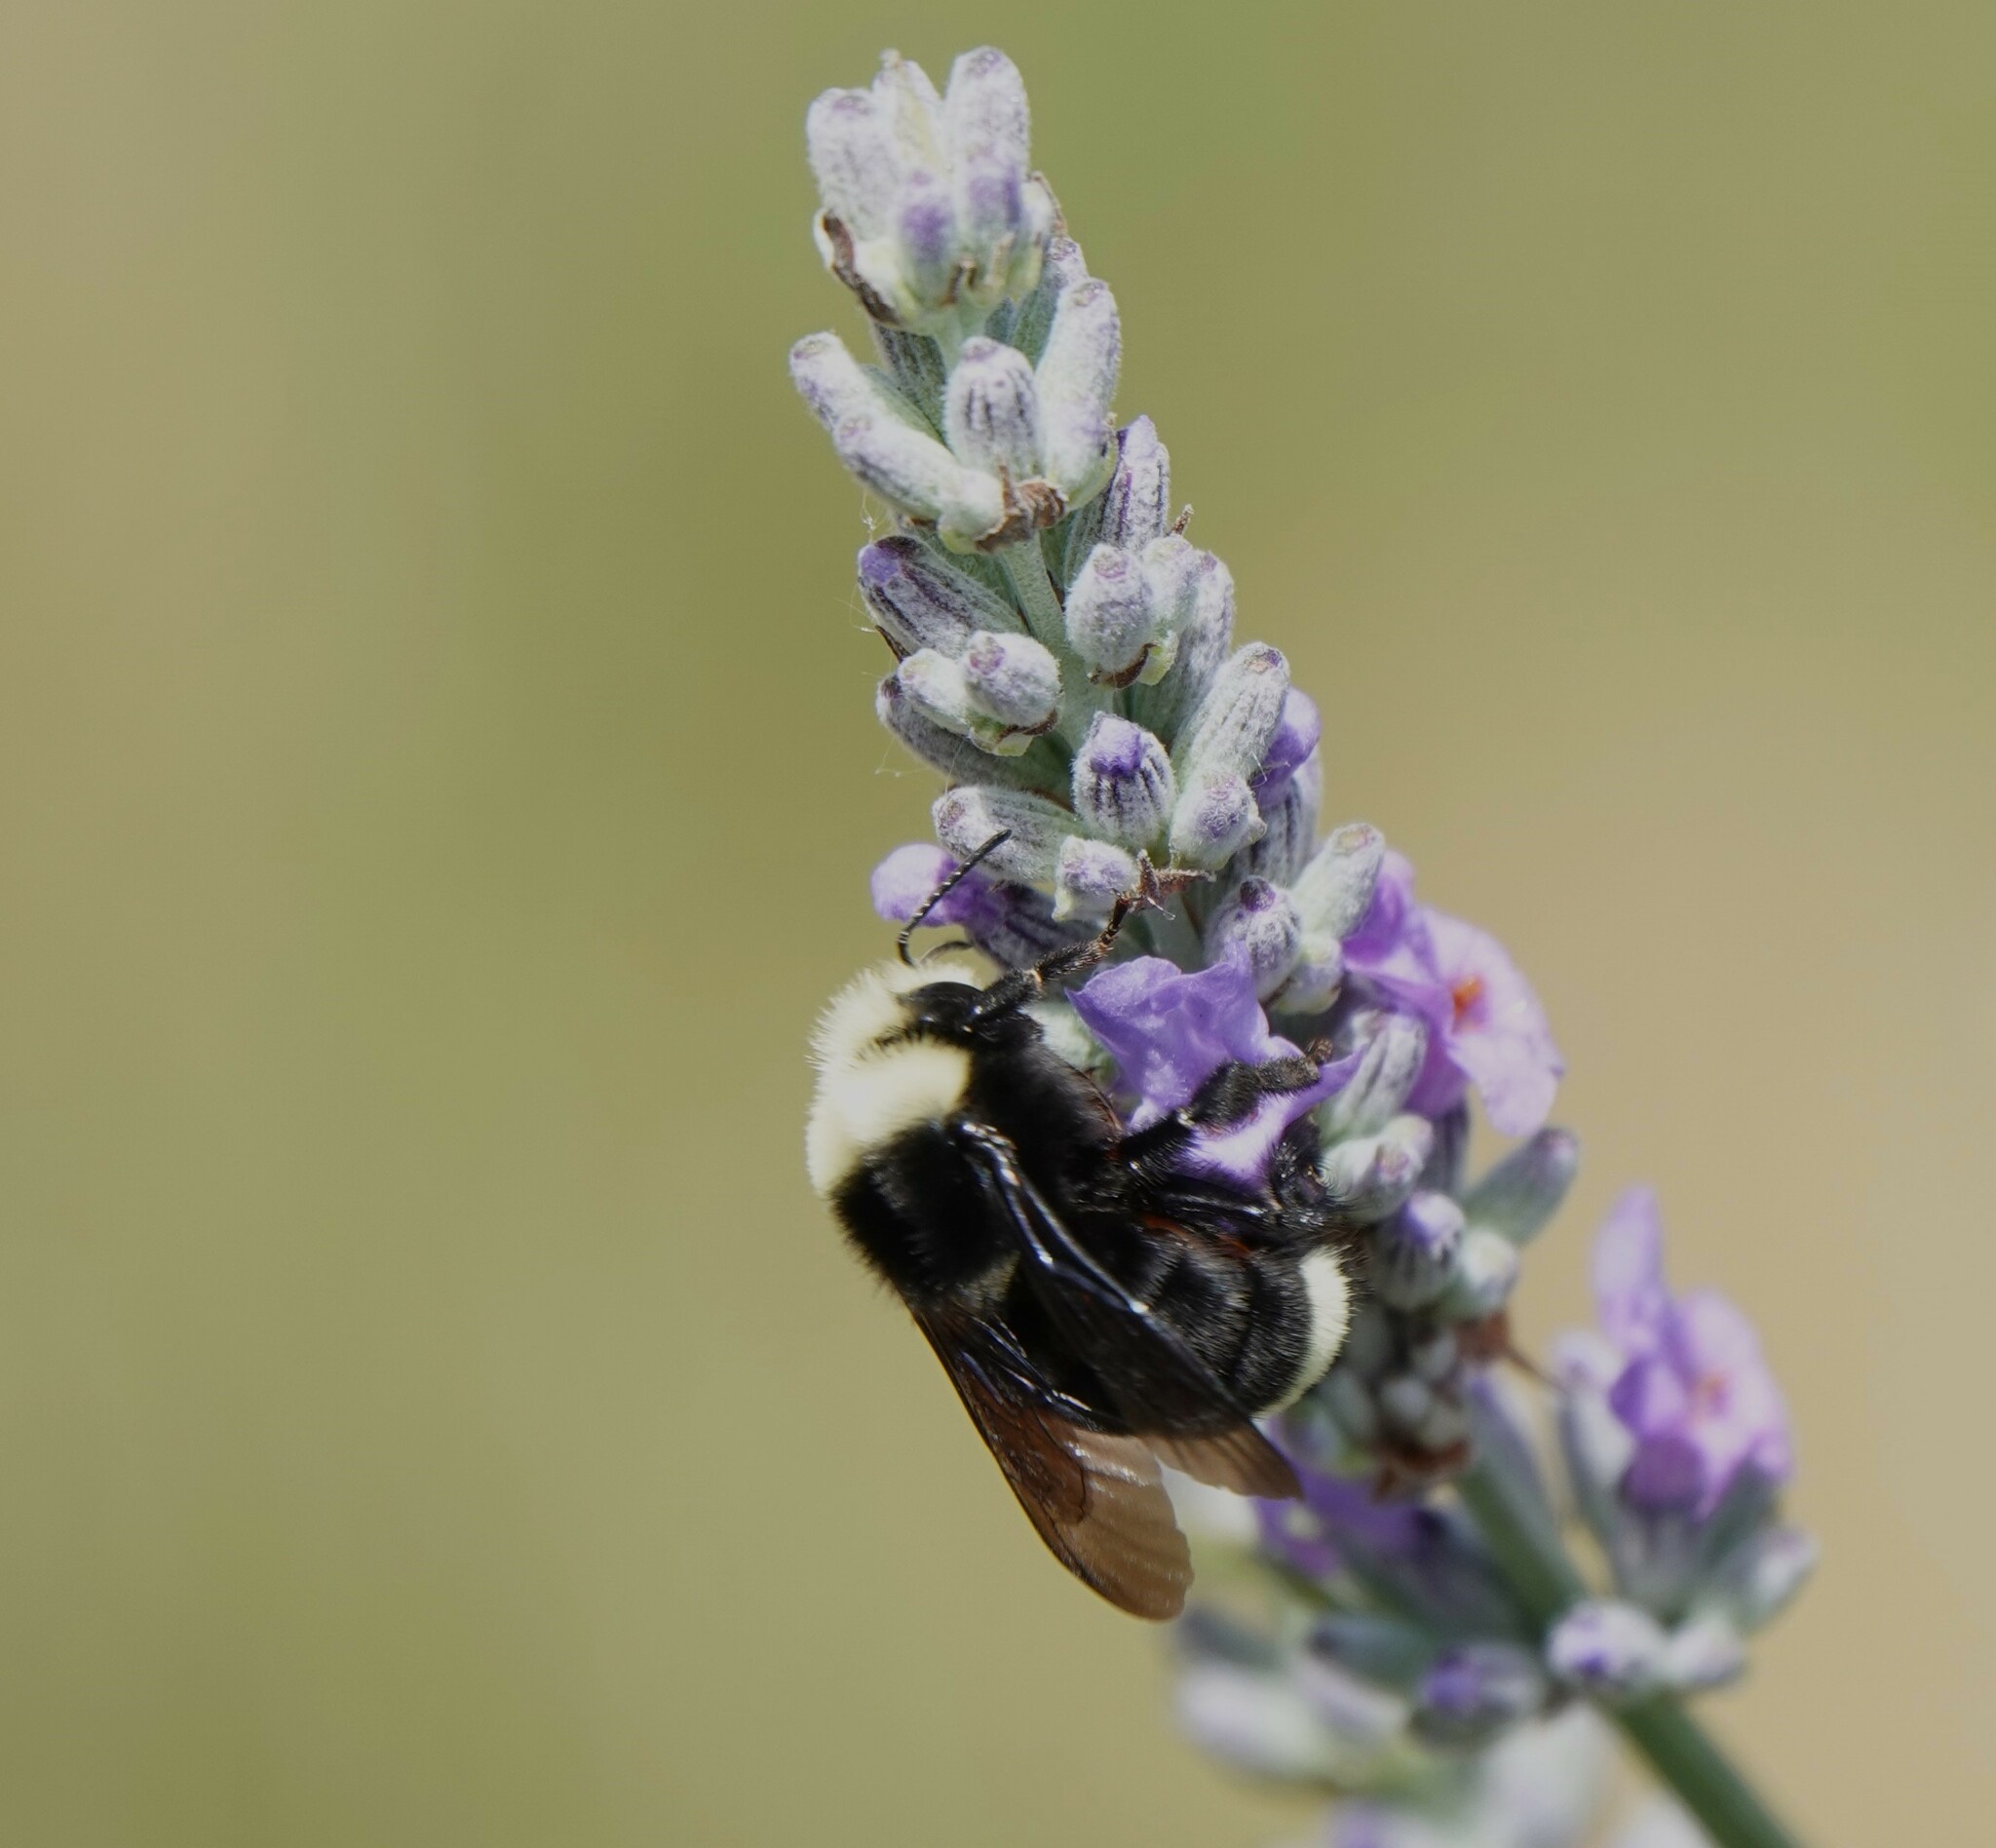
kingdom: Animalia
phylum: Arthropoda
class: Insecta
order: Hymenoptera
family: Apidae
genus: Pyrobombus
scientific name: Pyrobombus
